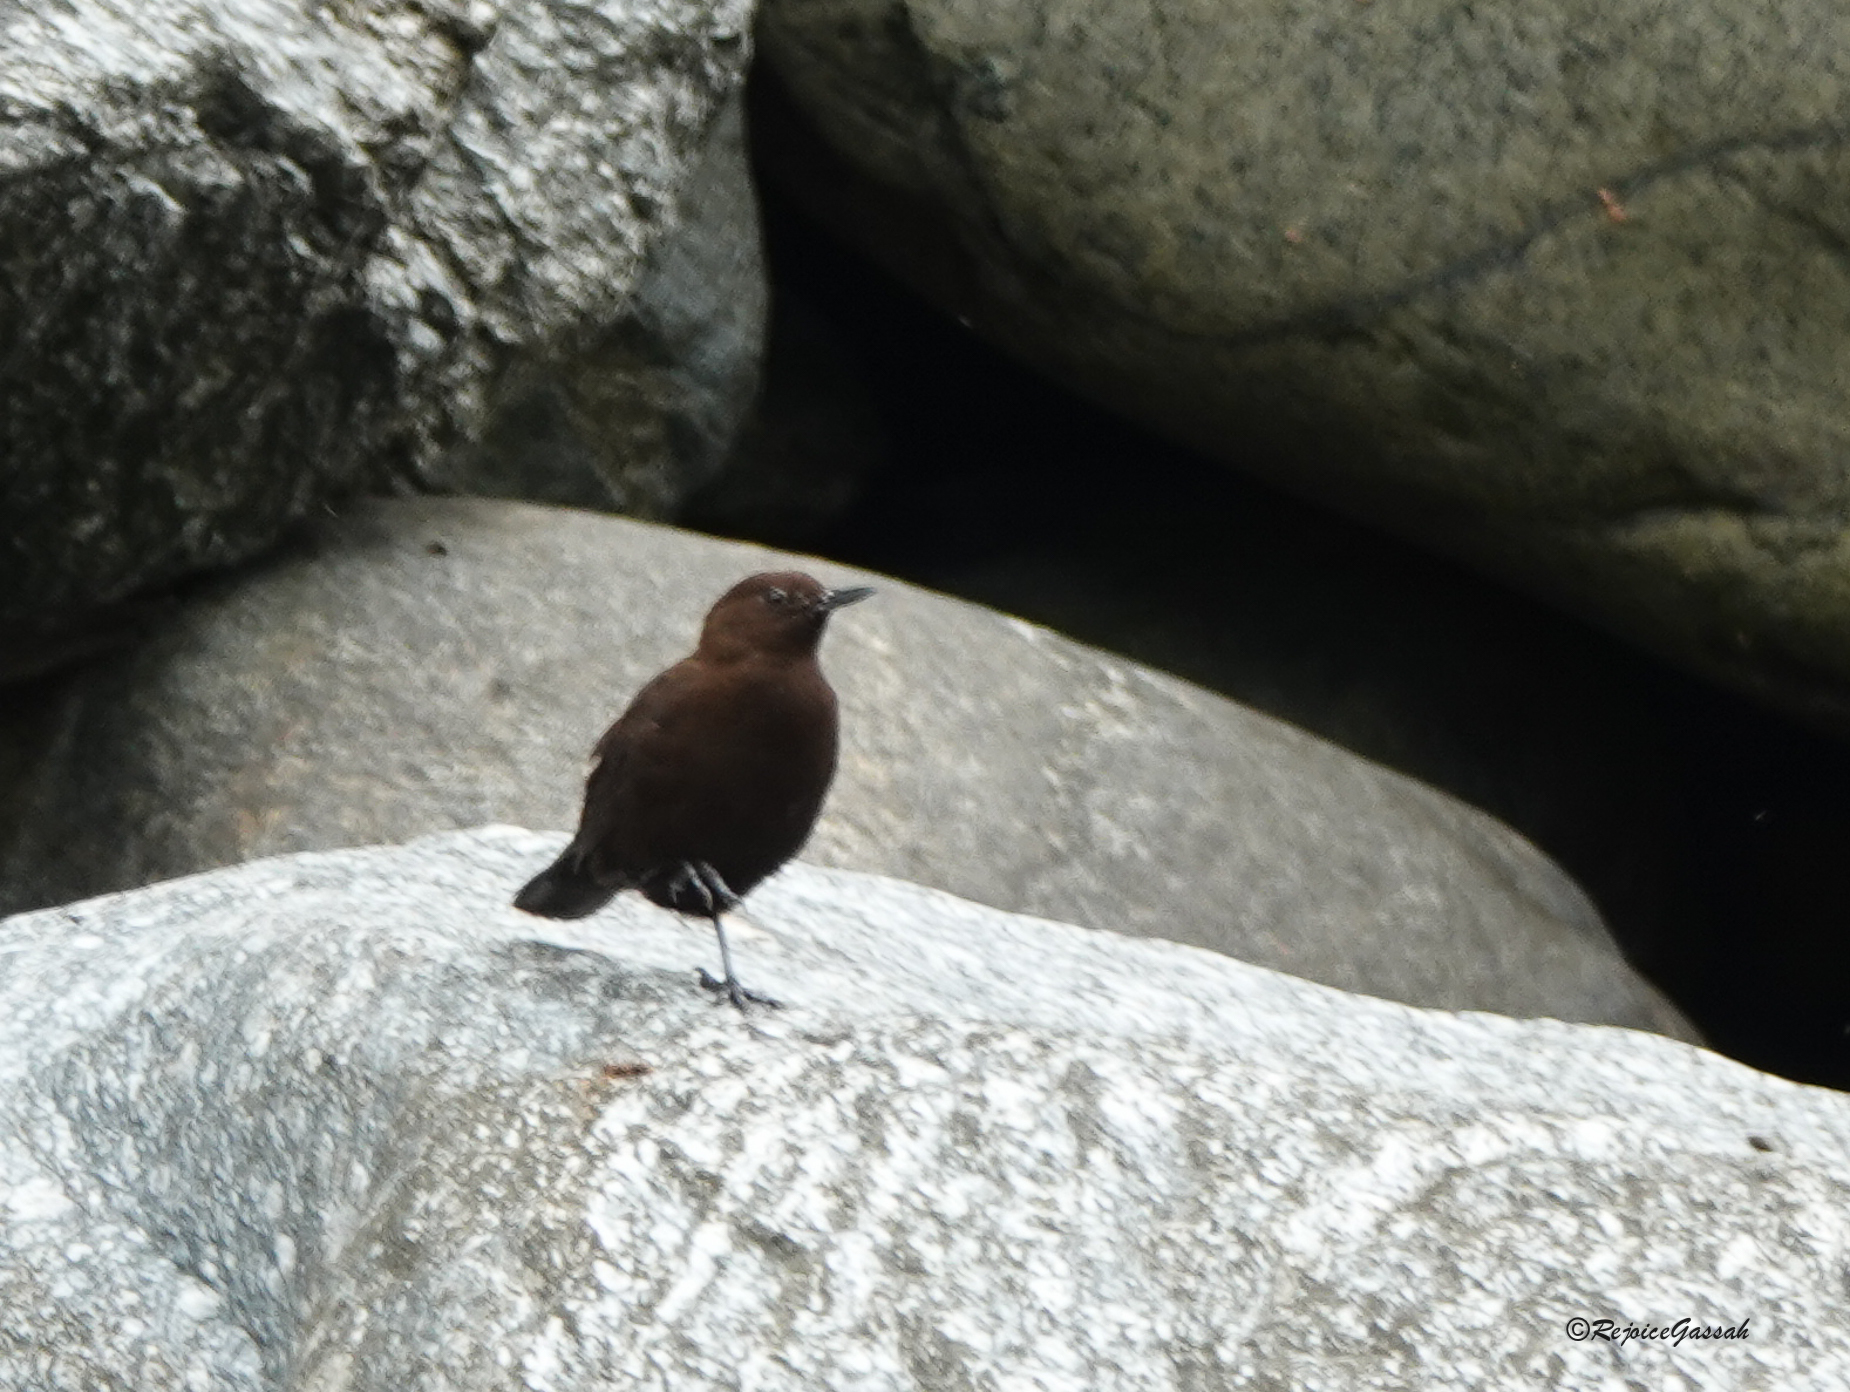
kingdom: Animalia
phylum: Chordata
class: Aves
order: Passeriformes
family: Cinclidae
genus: Cinclus
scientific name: Cinclus pallasii
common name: Brown dipper
